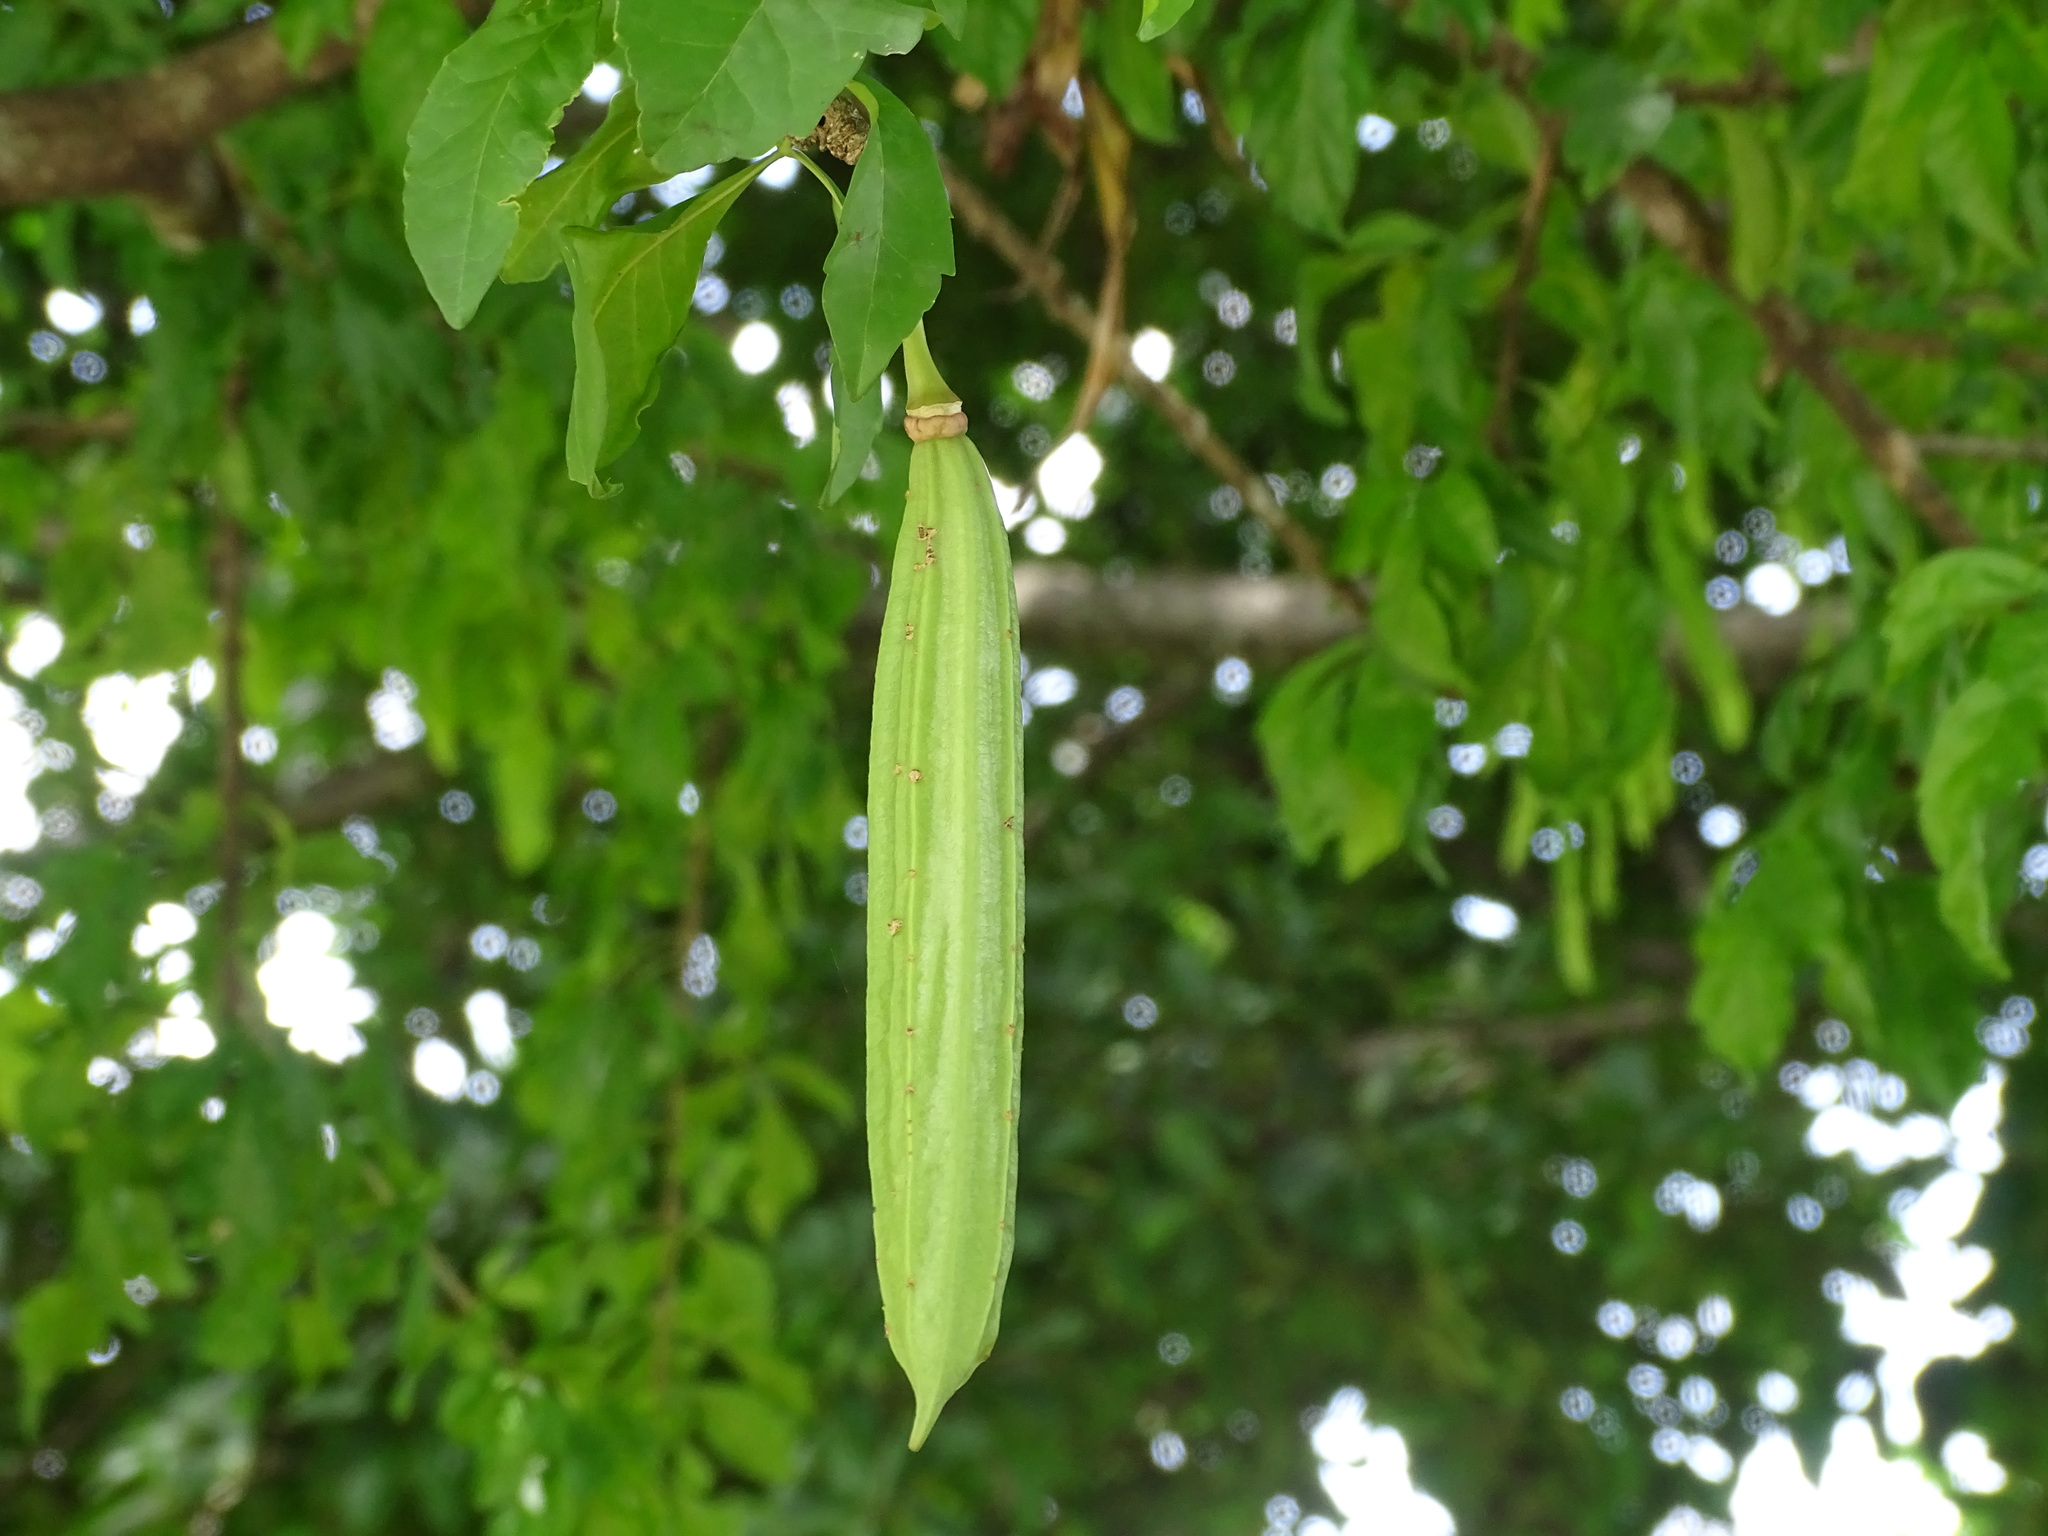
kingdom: Plantae
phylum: Tracheophyta
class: Magnoliopsida
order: Lamiales
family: Bignoniaceae
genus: Parmentiera
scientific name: Parmentiera aculeata
